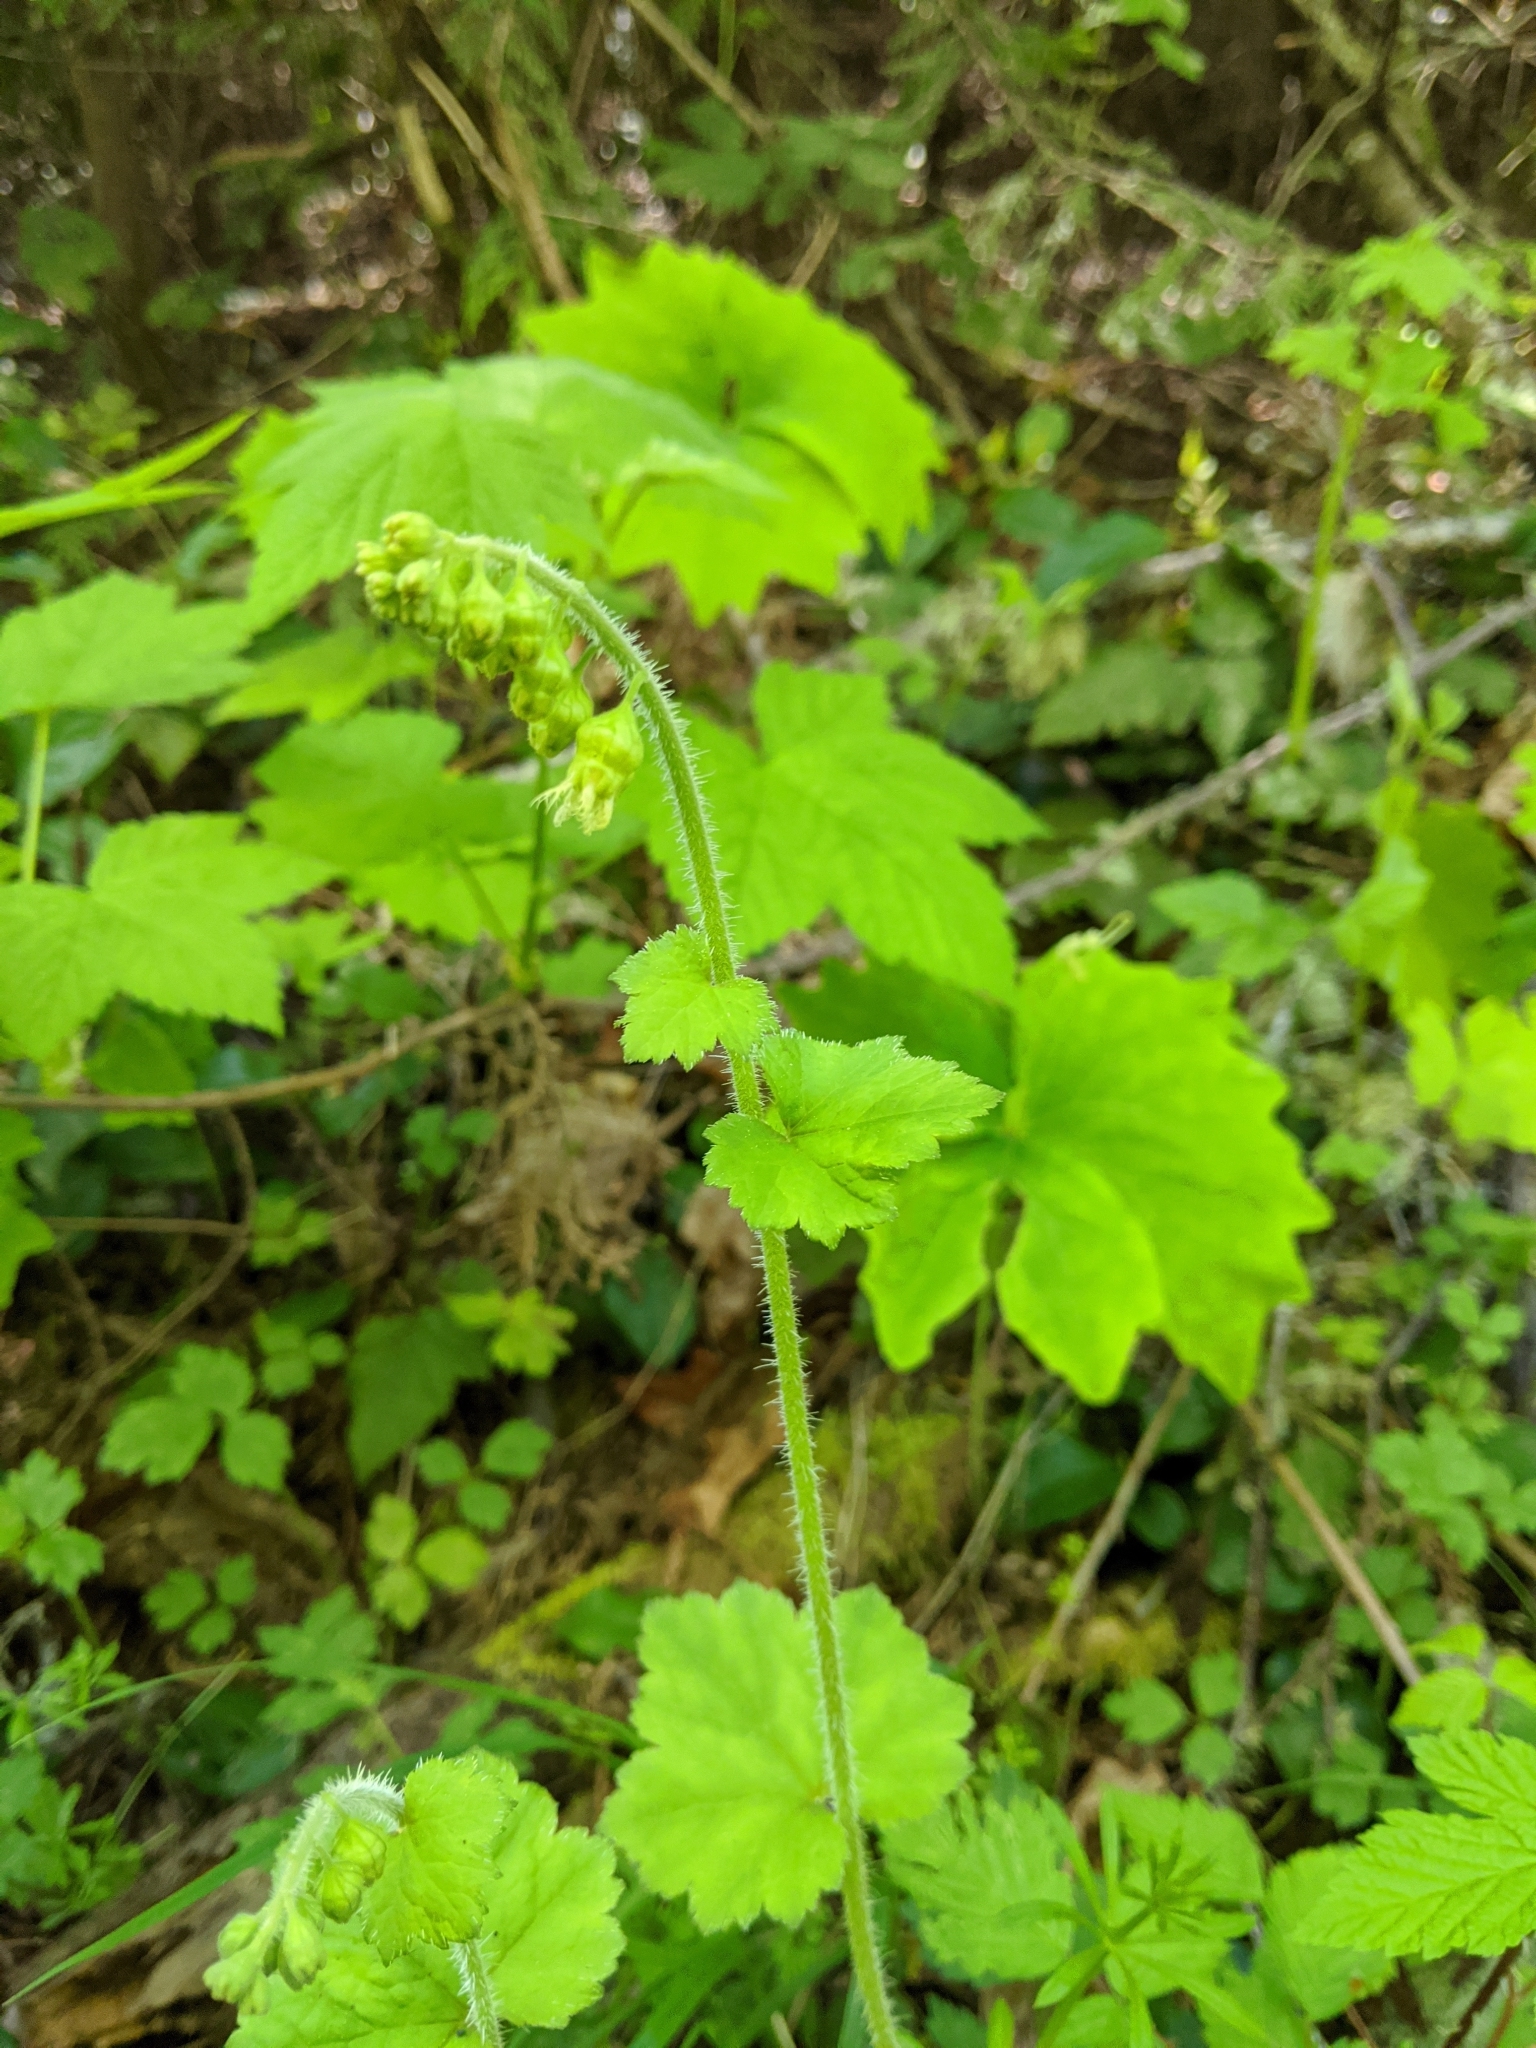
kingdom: Plantae
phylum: Tracheophyta
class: Magnoliopsida
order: Saxifragales
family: Saxifragaceae
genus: Tellima
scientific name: Tellima grandiflora
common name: Fringecups
